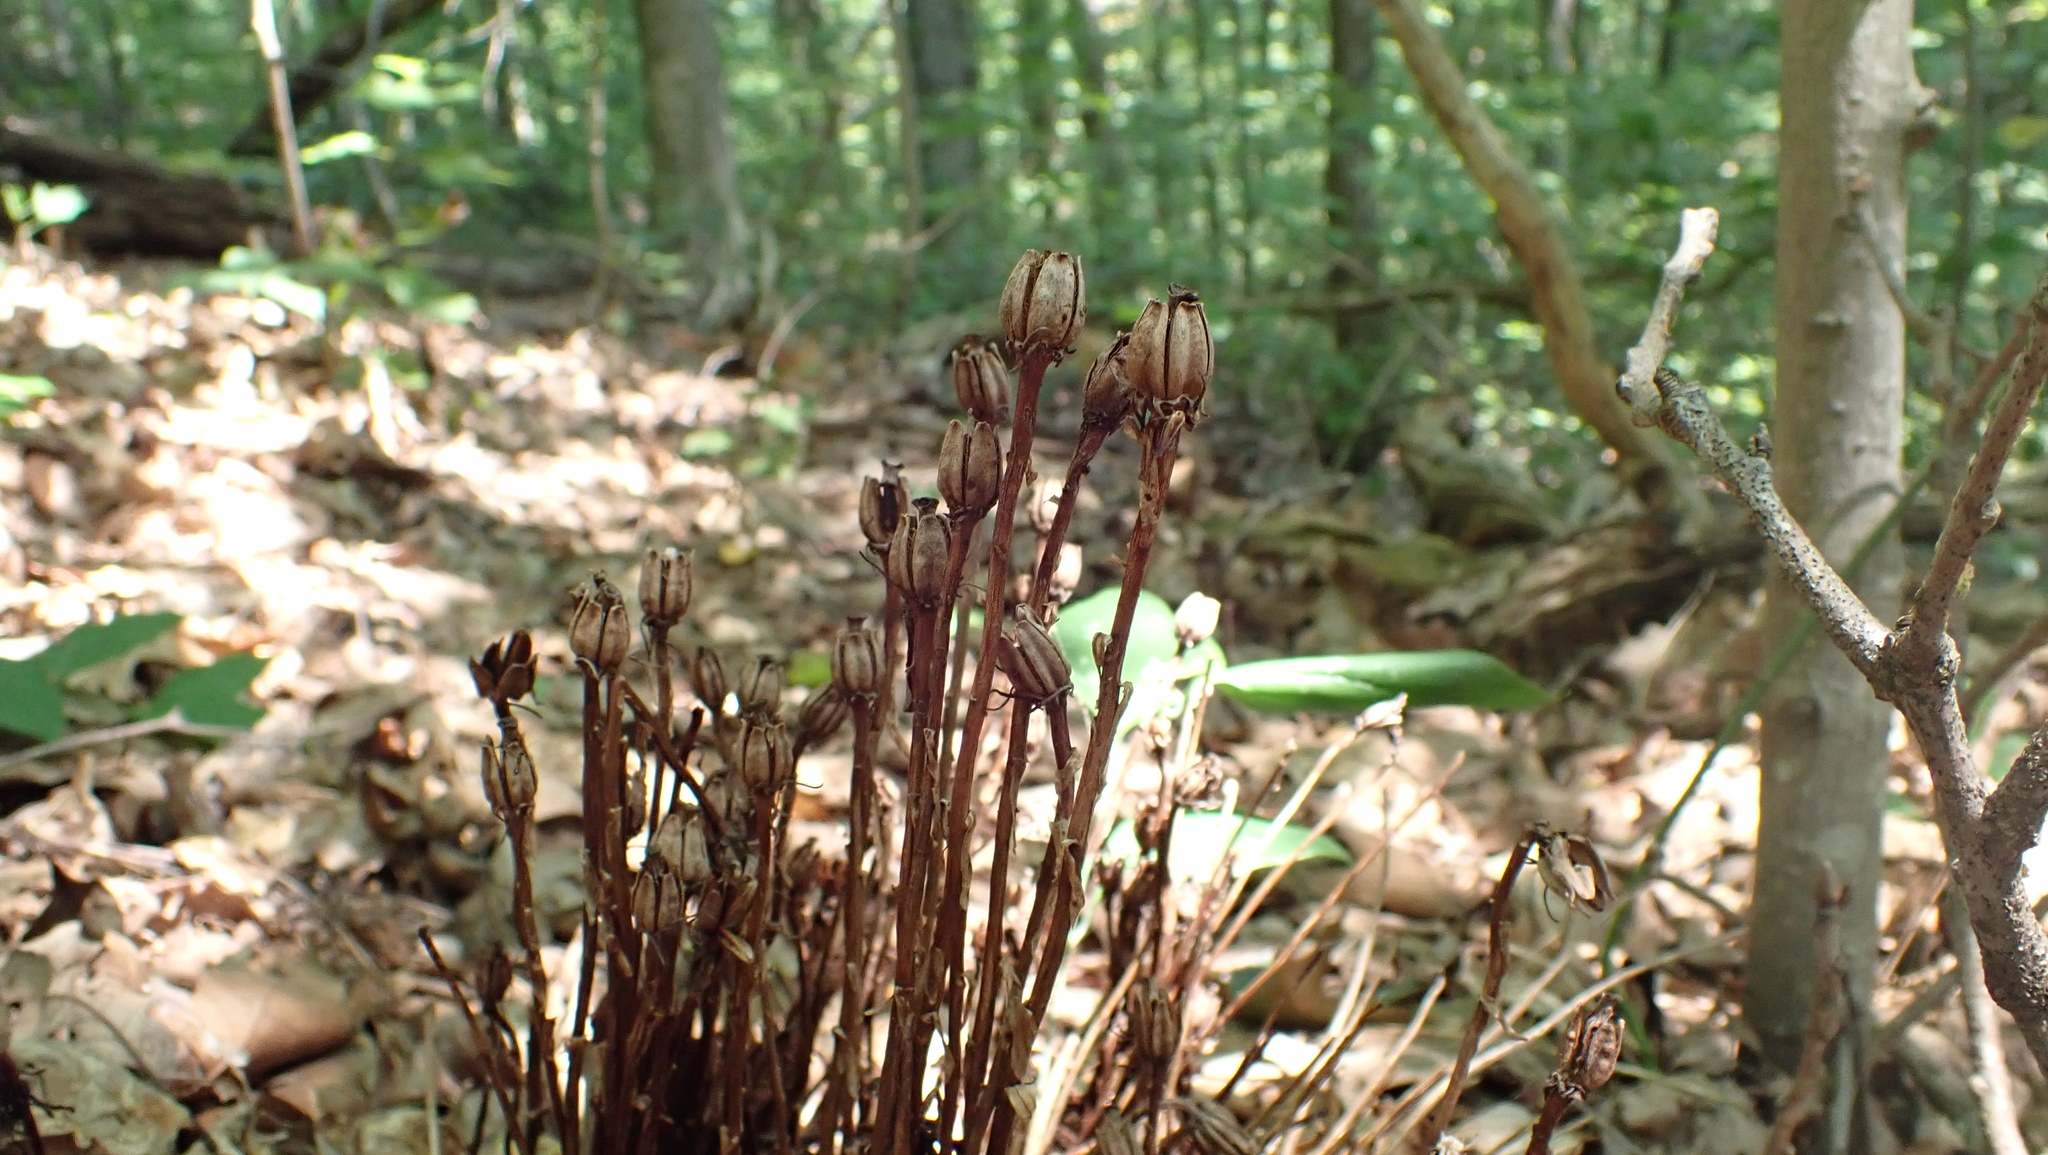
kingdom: Plantae
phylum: Tracheophyta
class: Magnoliopsida
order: Ericales
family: Ericaceae
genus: Monotropa
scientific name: Monotropa uniflora
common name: Convulsion root
